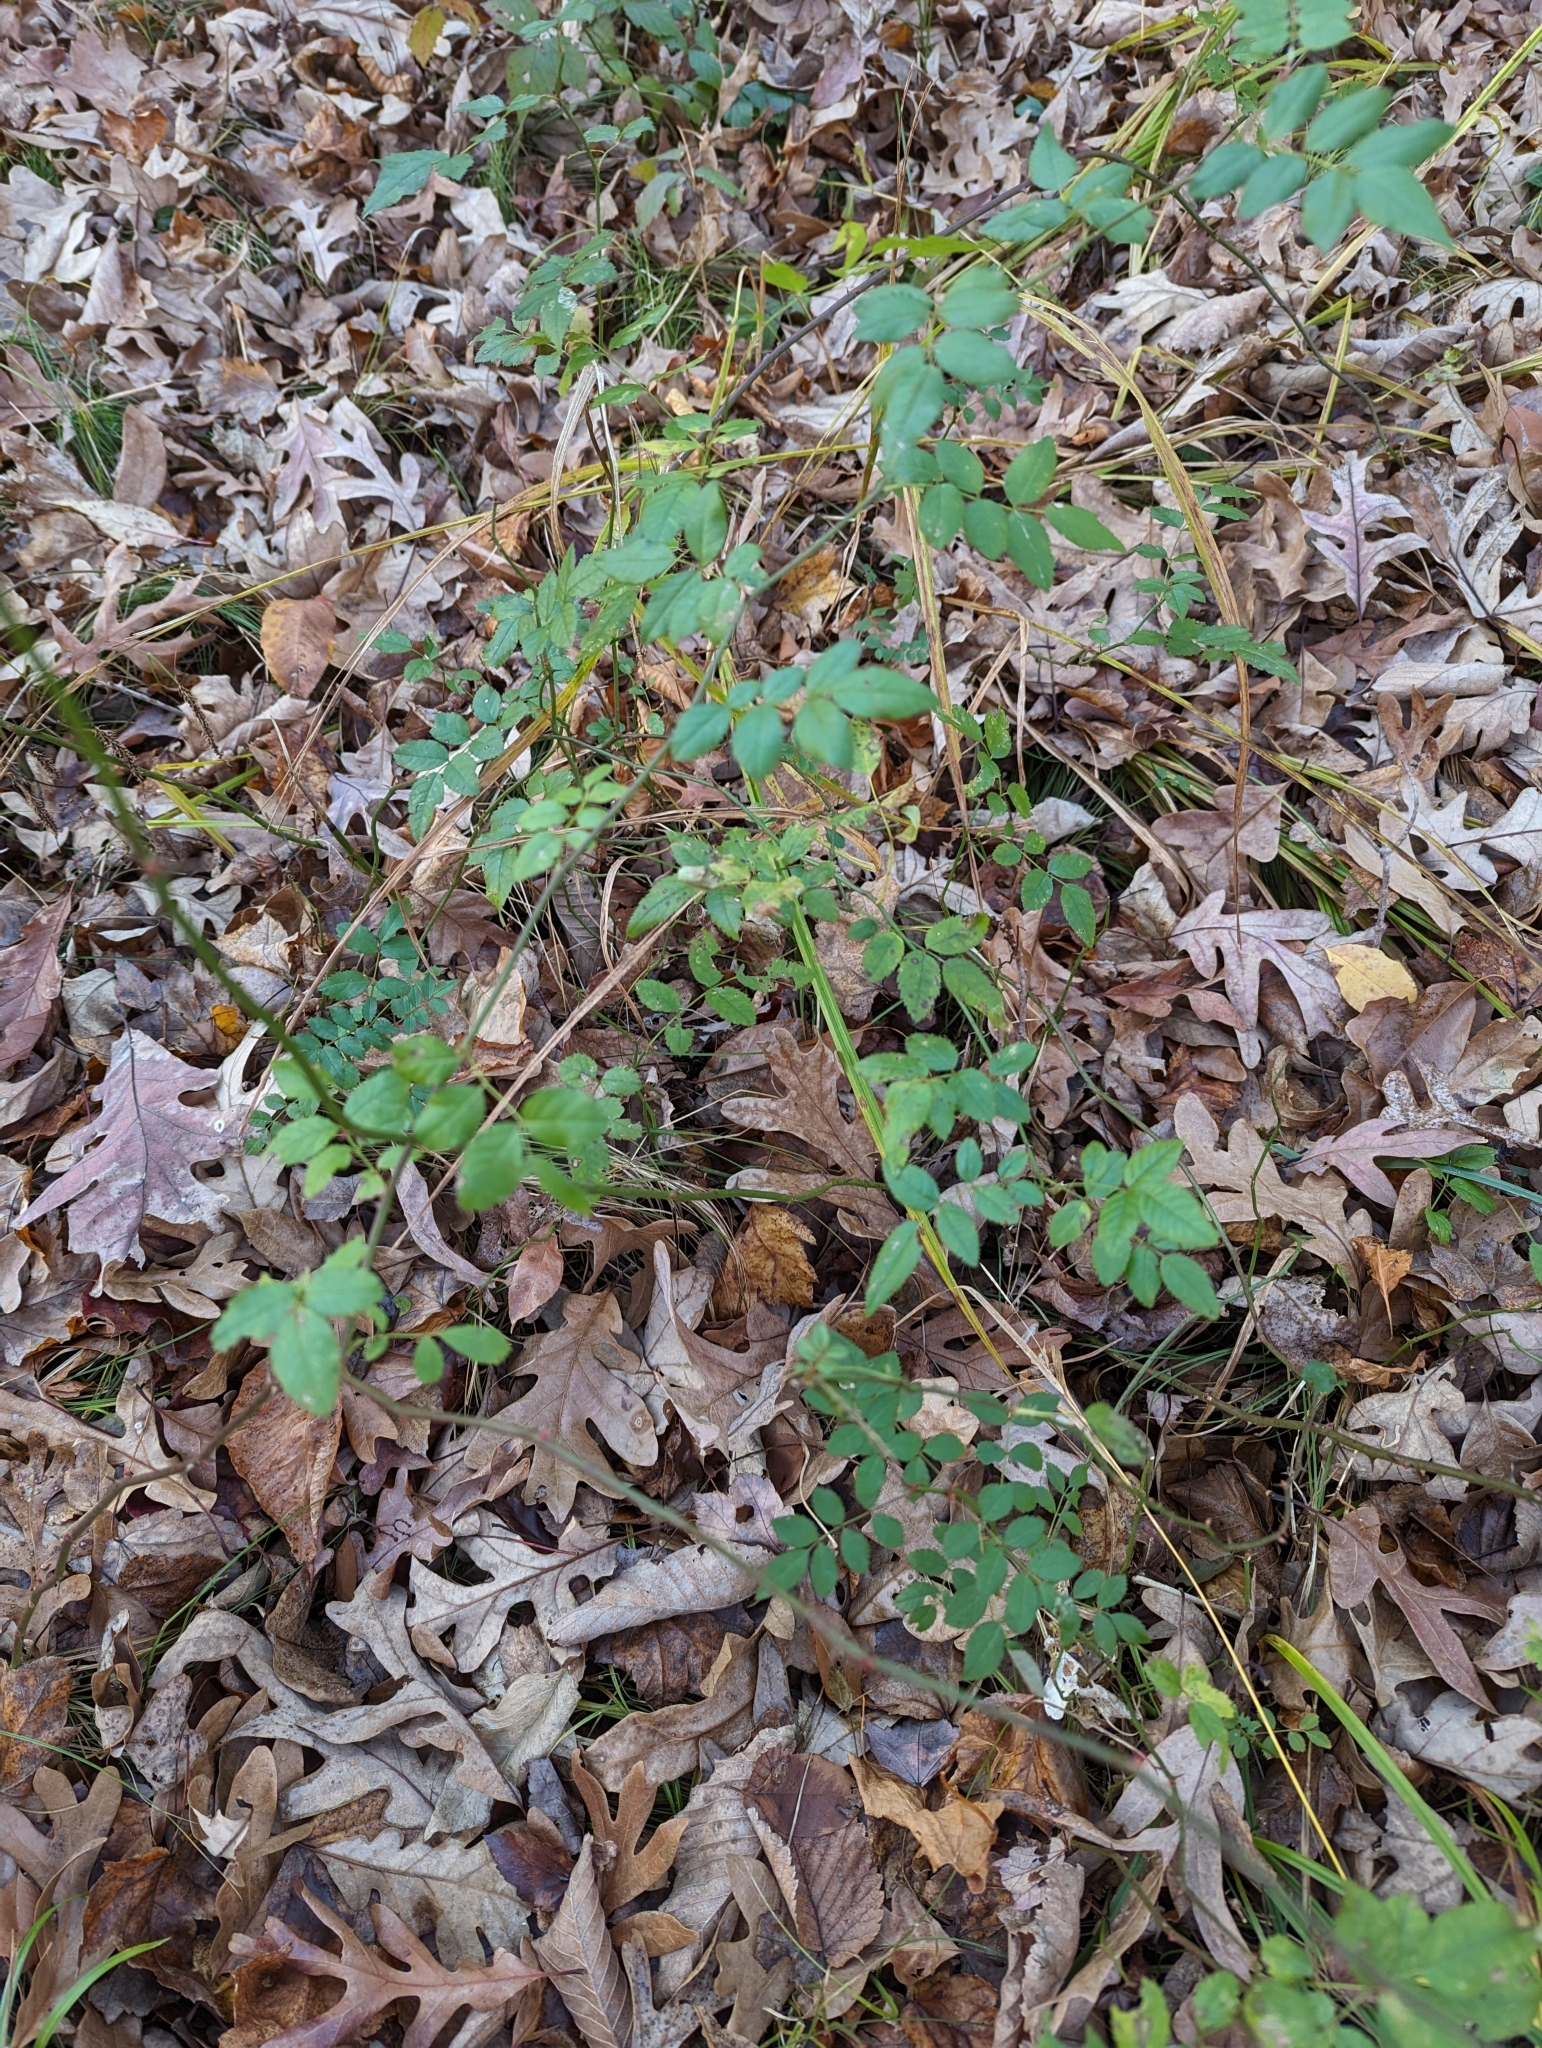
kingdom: Plantae
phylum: Tracheophyta
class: Magnoliopsida
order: Rosales
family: Rosaceae
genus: Rosa
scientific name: Rosa multiflora
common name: Multiflora rose
